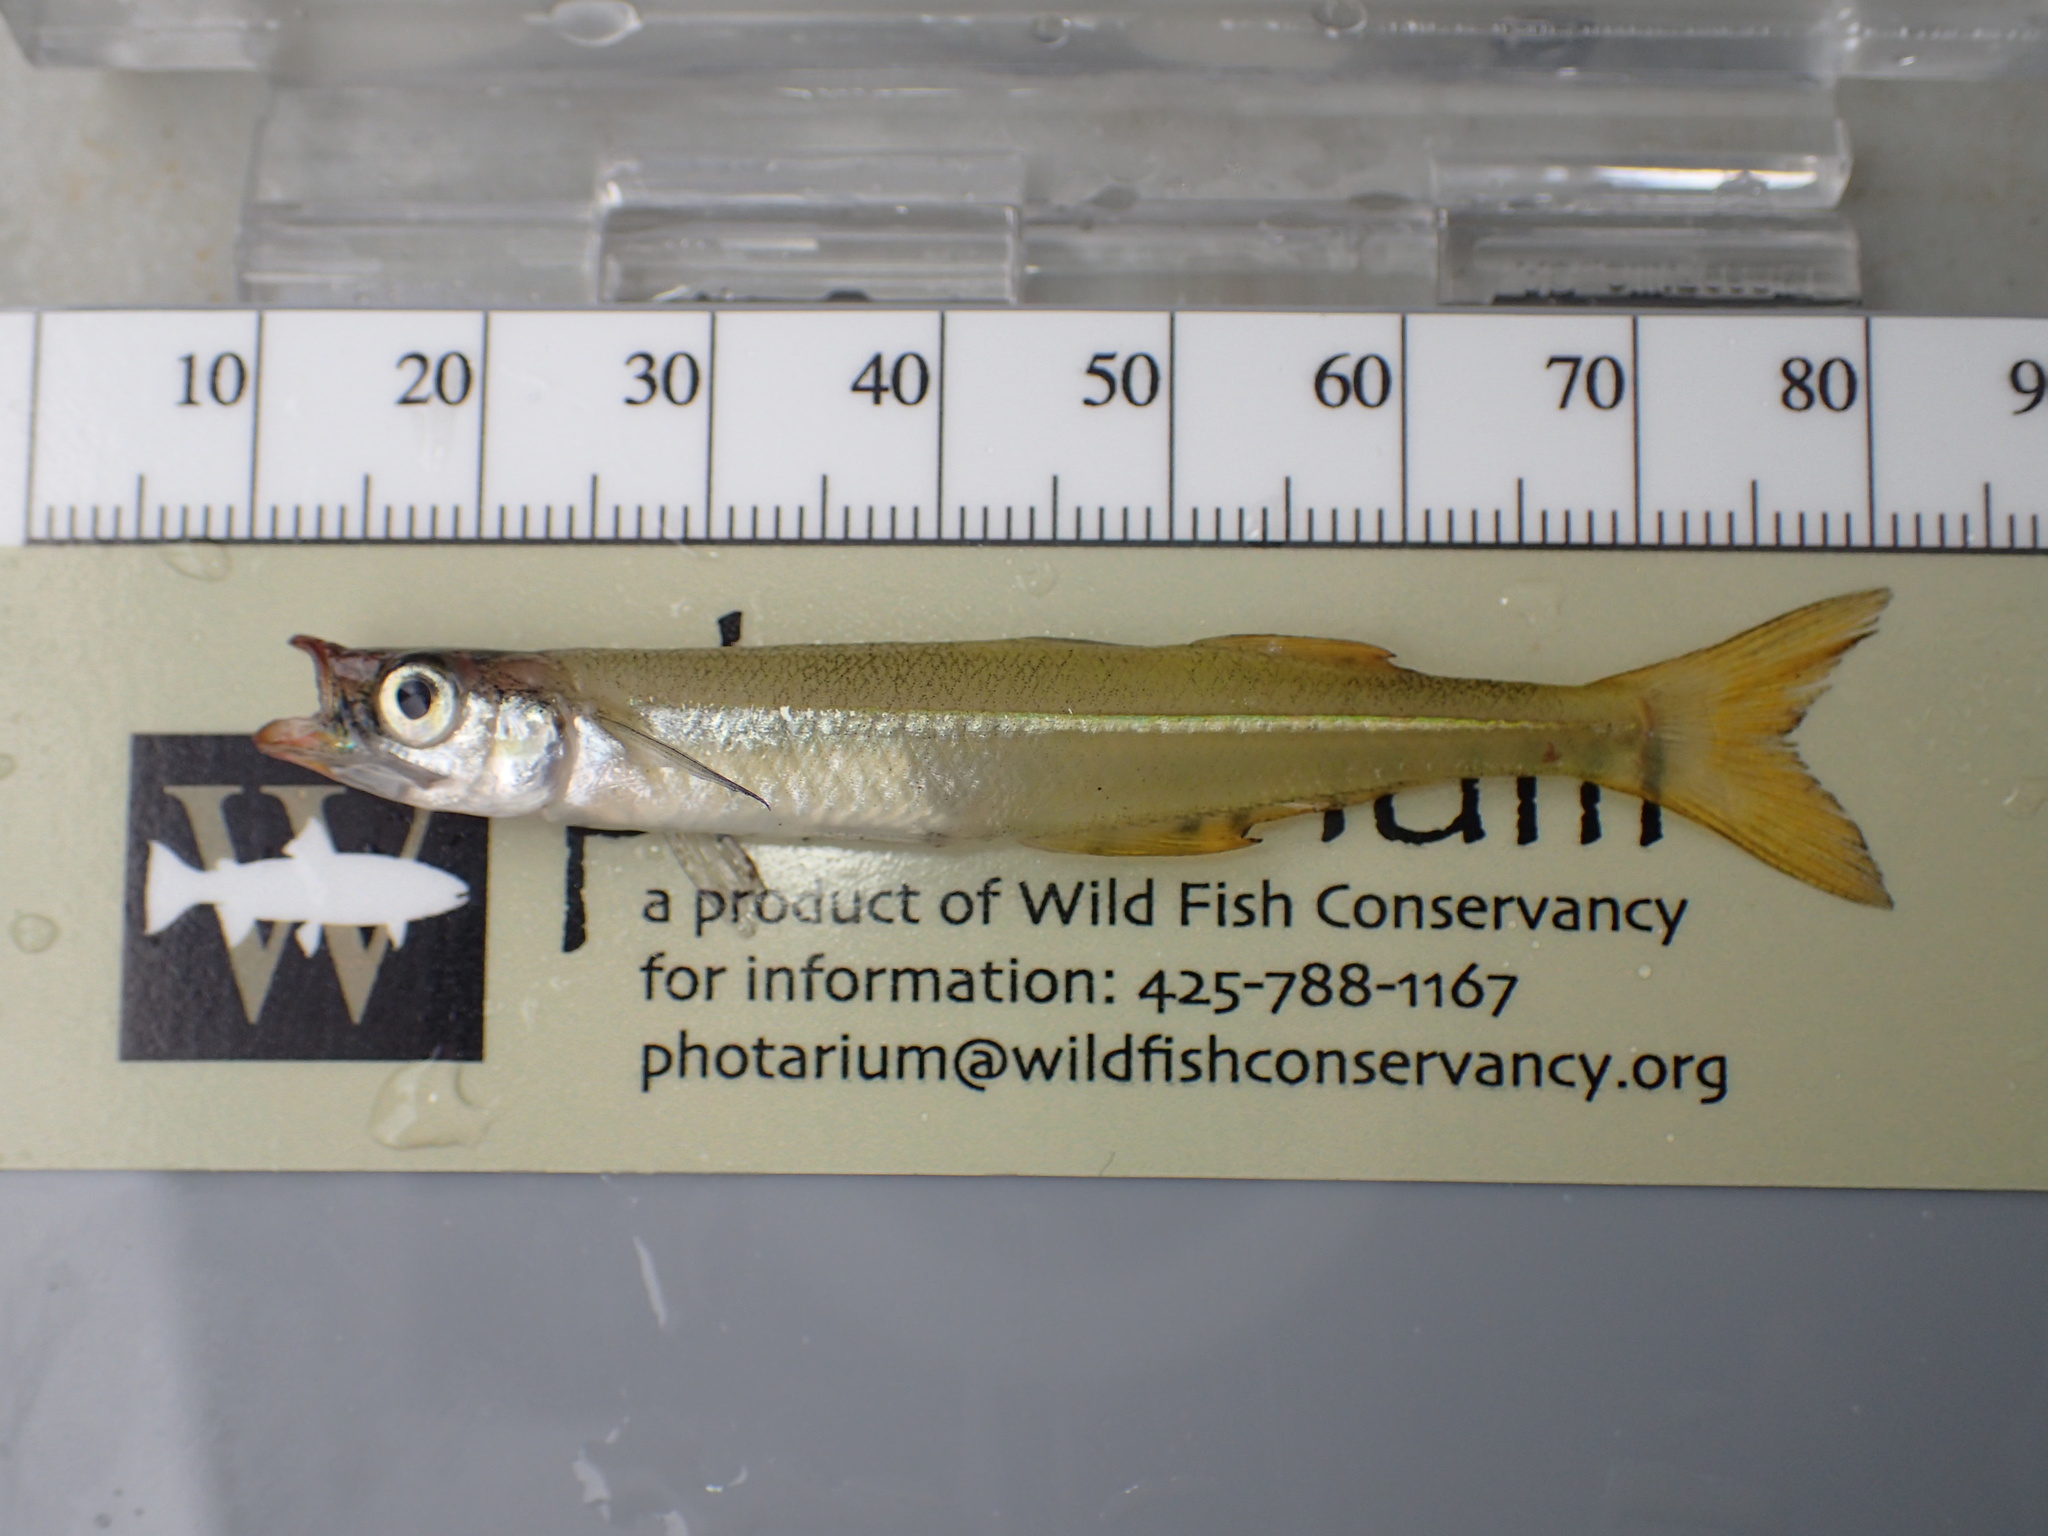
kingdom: Animalia
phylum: Chordata
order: Atheriniformes
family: Atherinopsidae
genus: Labidesthes
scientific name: Labidesthes vanhyningi
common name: Golden silverside
